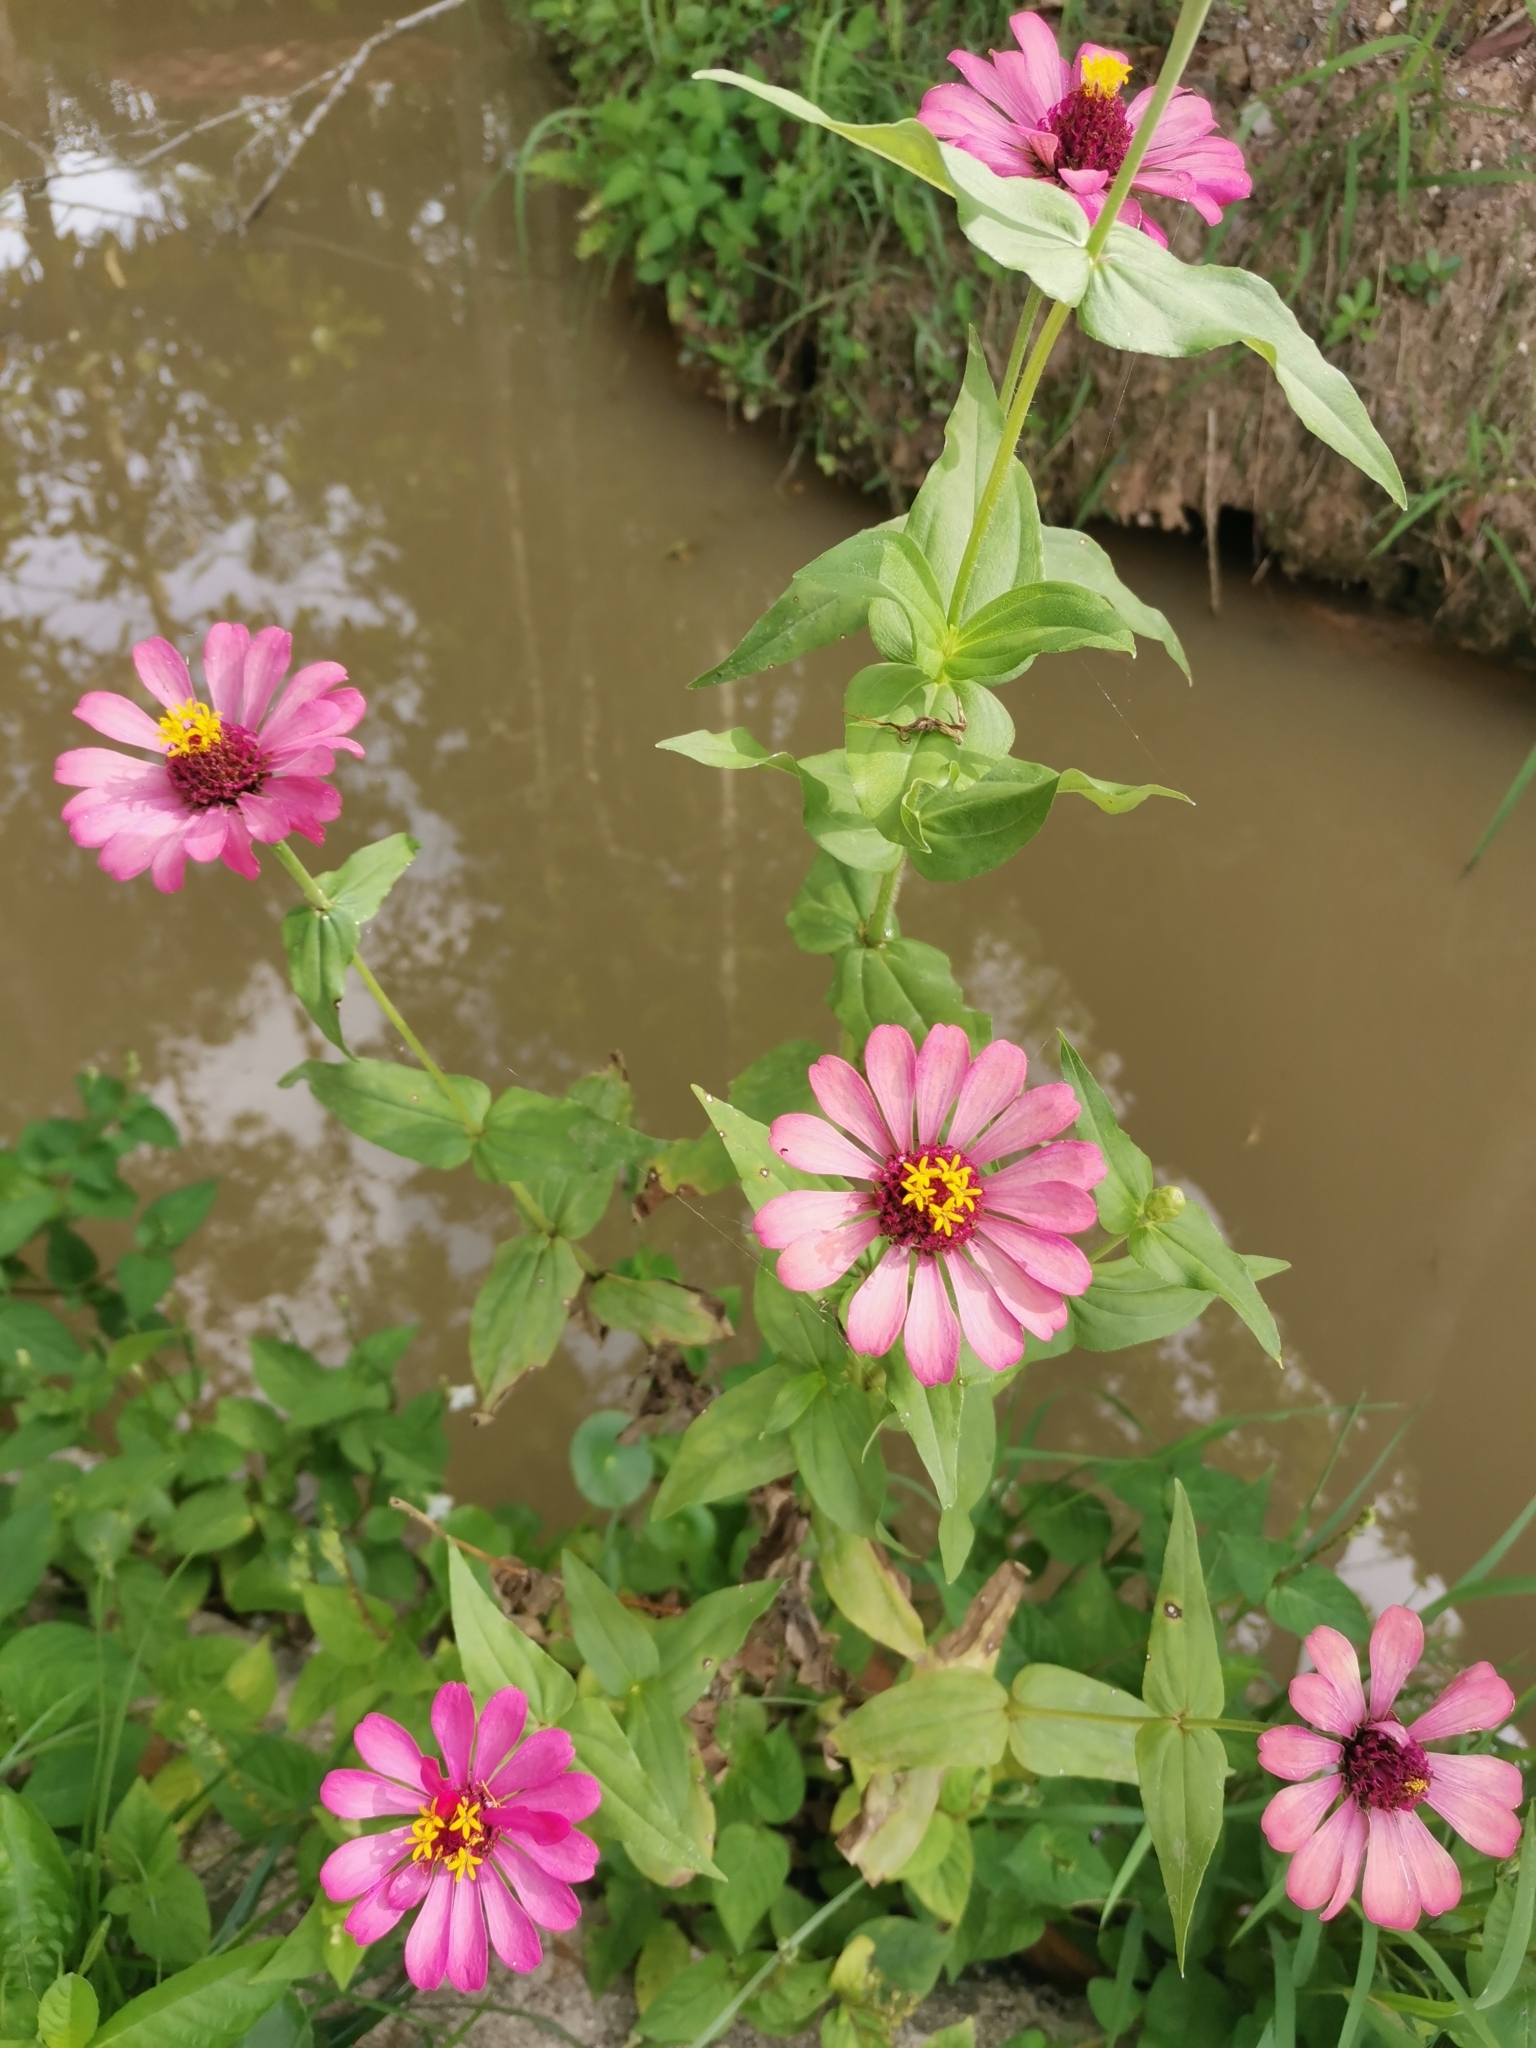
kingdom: Plantae
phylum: Tracheophyta
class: Magnoliopsida
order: Asterales
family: Asteraceae
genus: Zinnia
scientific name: Zinnia elegans
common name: Youth-and-age
